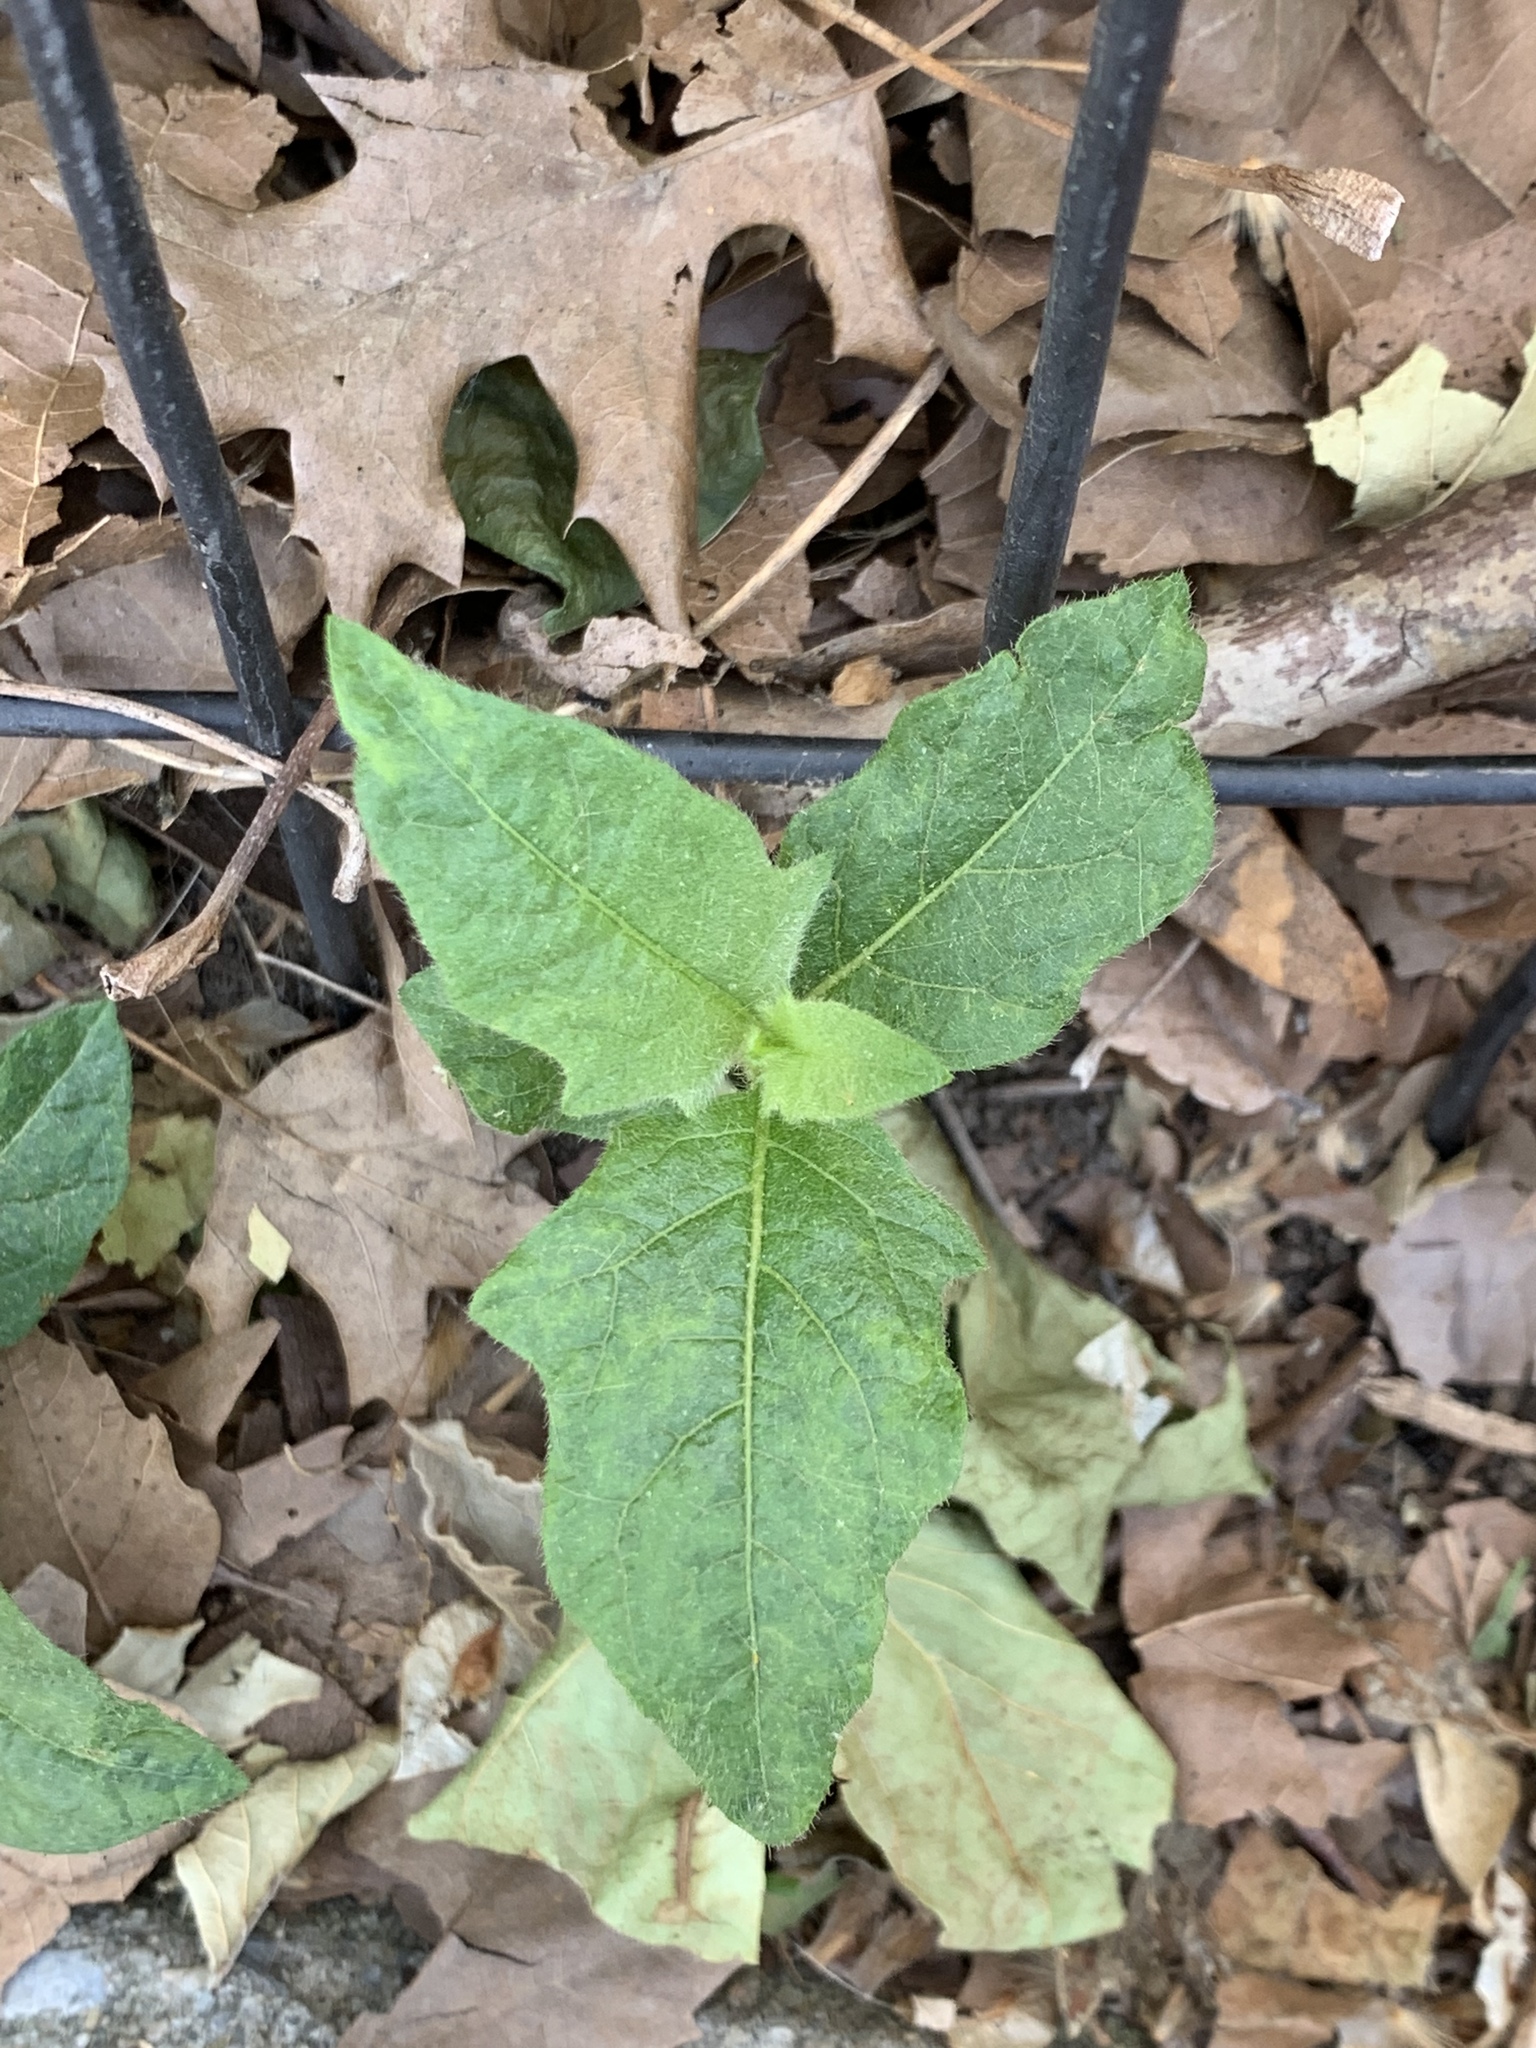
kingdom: Plantae
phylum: Tracheophyta
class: Magnoliopsida
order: Solanales
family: Solanaceae
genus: Solanum
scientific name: Solanum carolinense
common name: Horse-nettle
